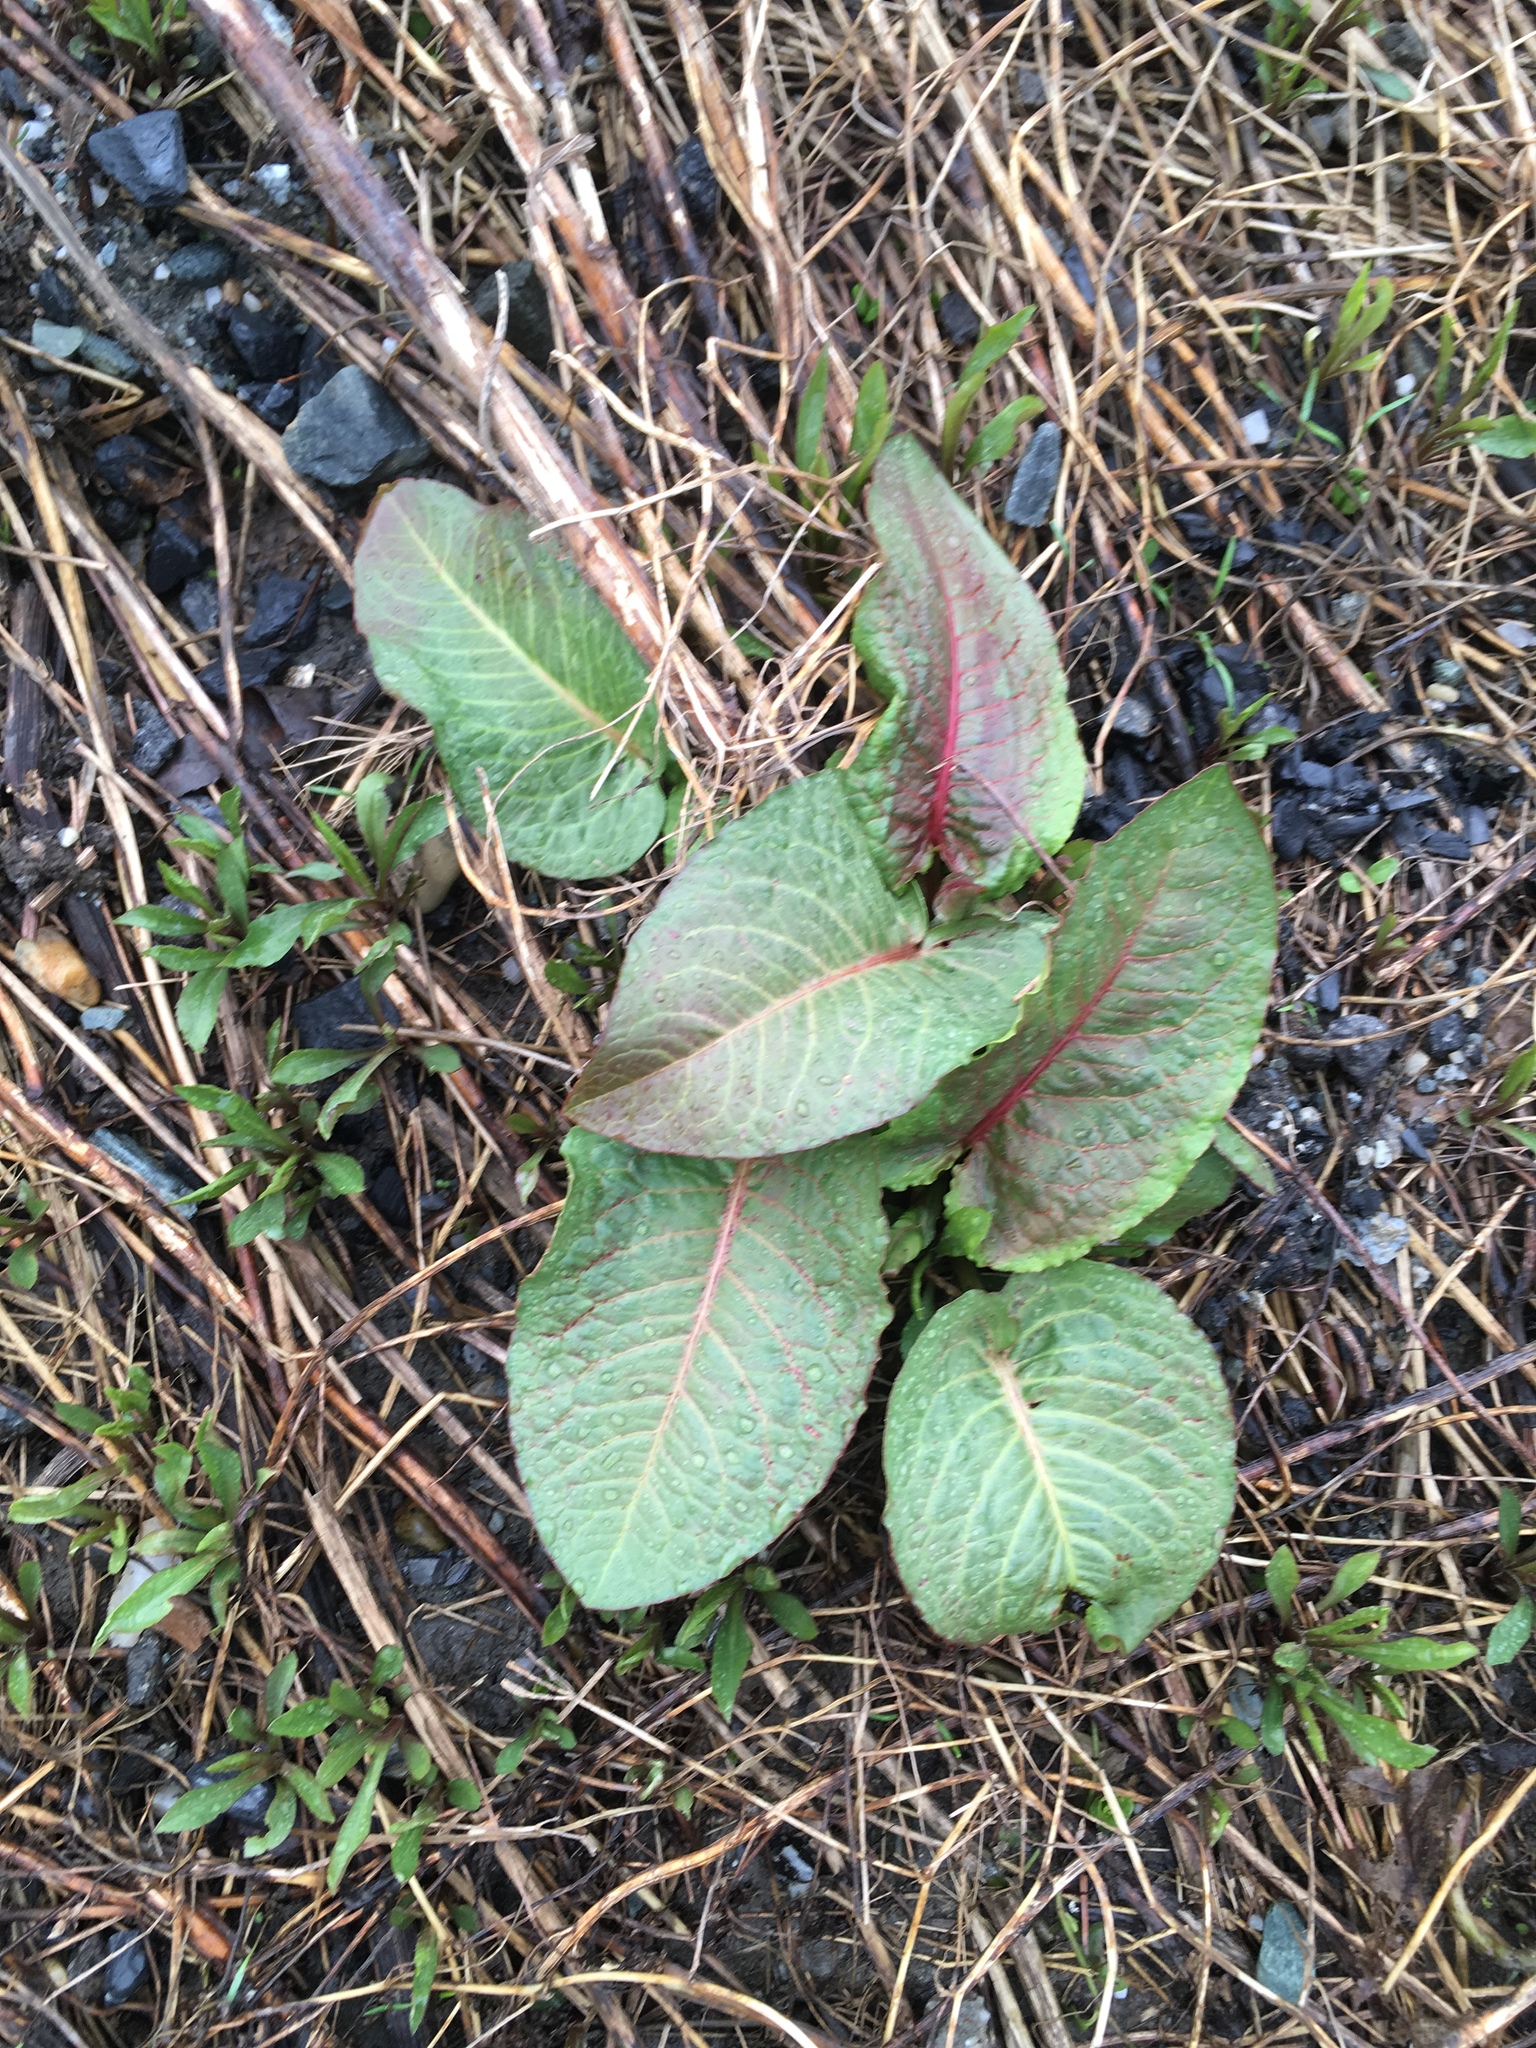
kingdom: Plantae
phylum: Tracheophyta
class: Magnoliopsida
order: Caryophyllales
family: Polygonaceae
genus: Rumex
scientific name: Rumex obtusifolius
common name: Bitter dock
